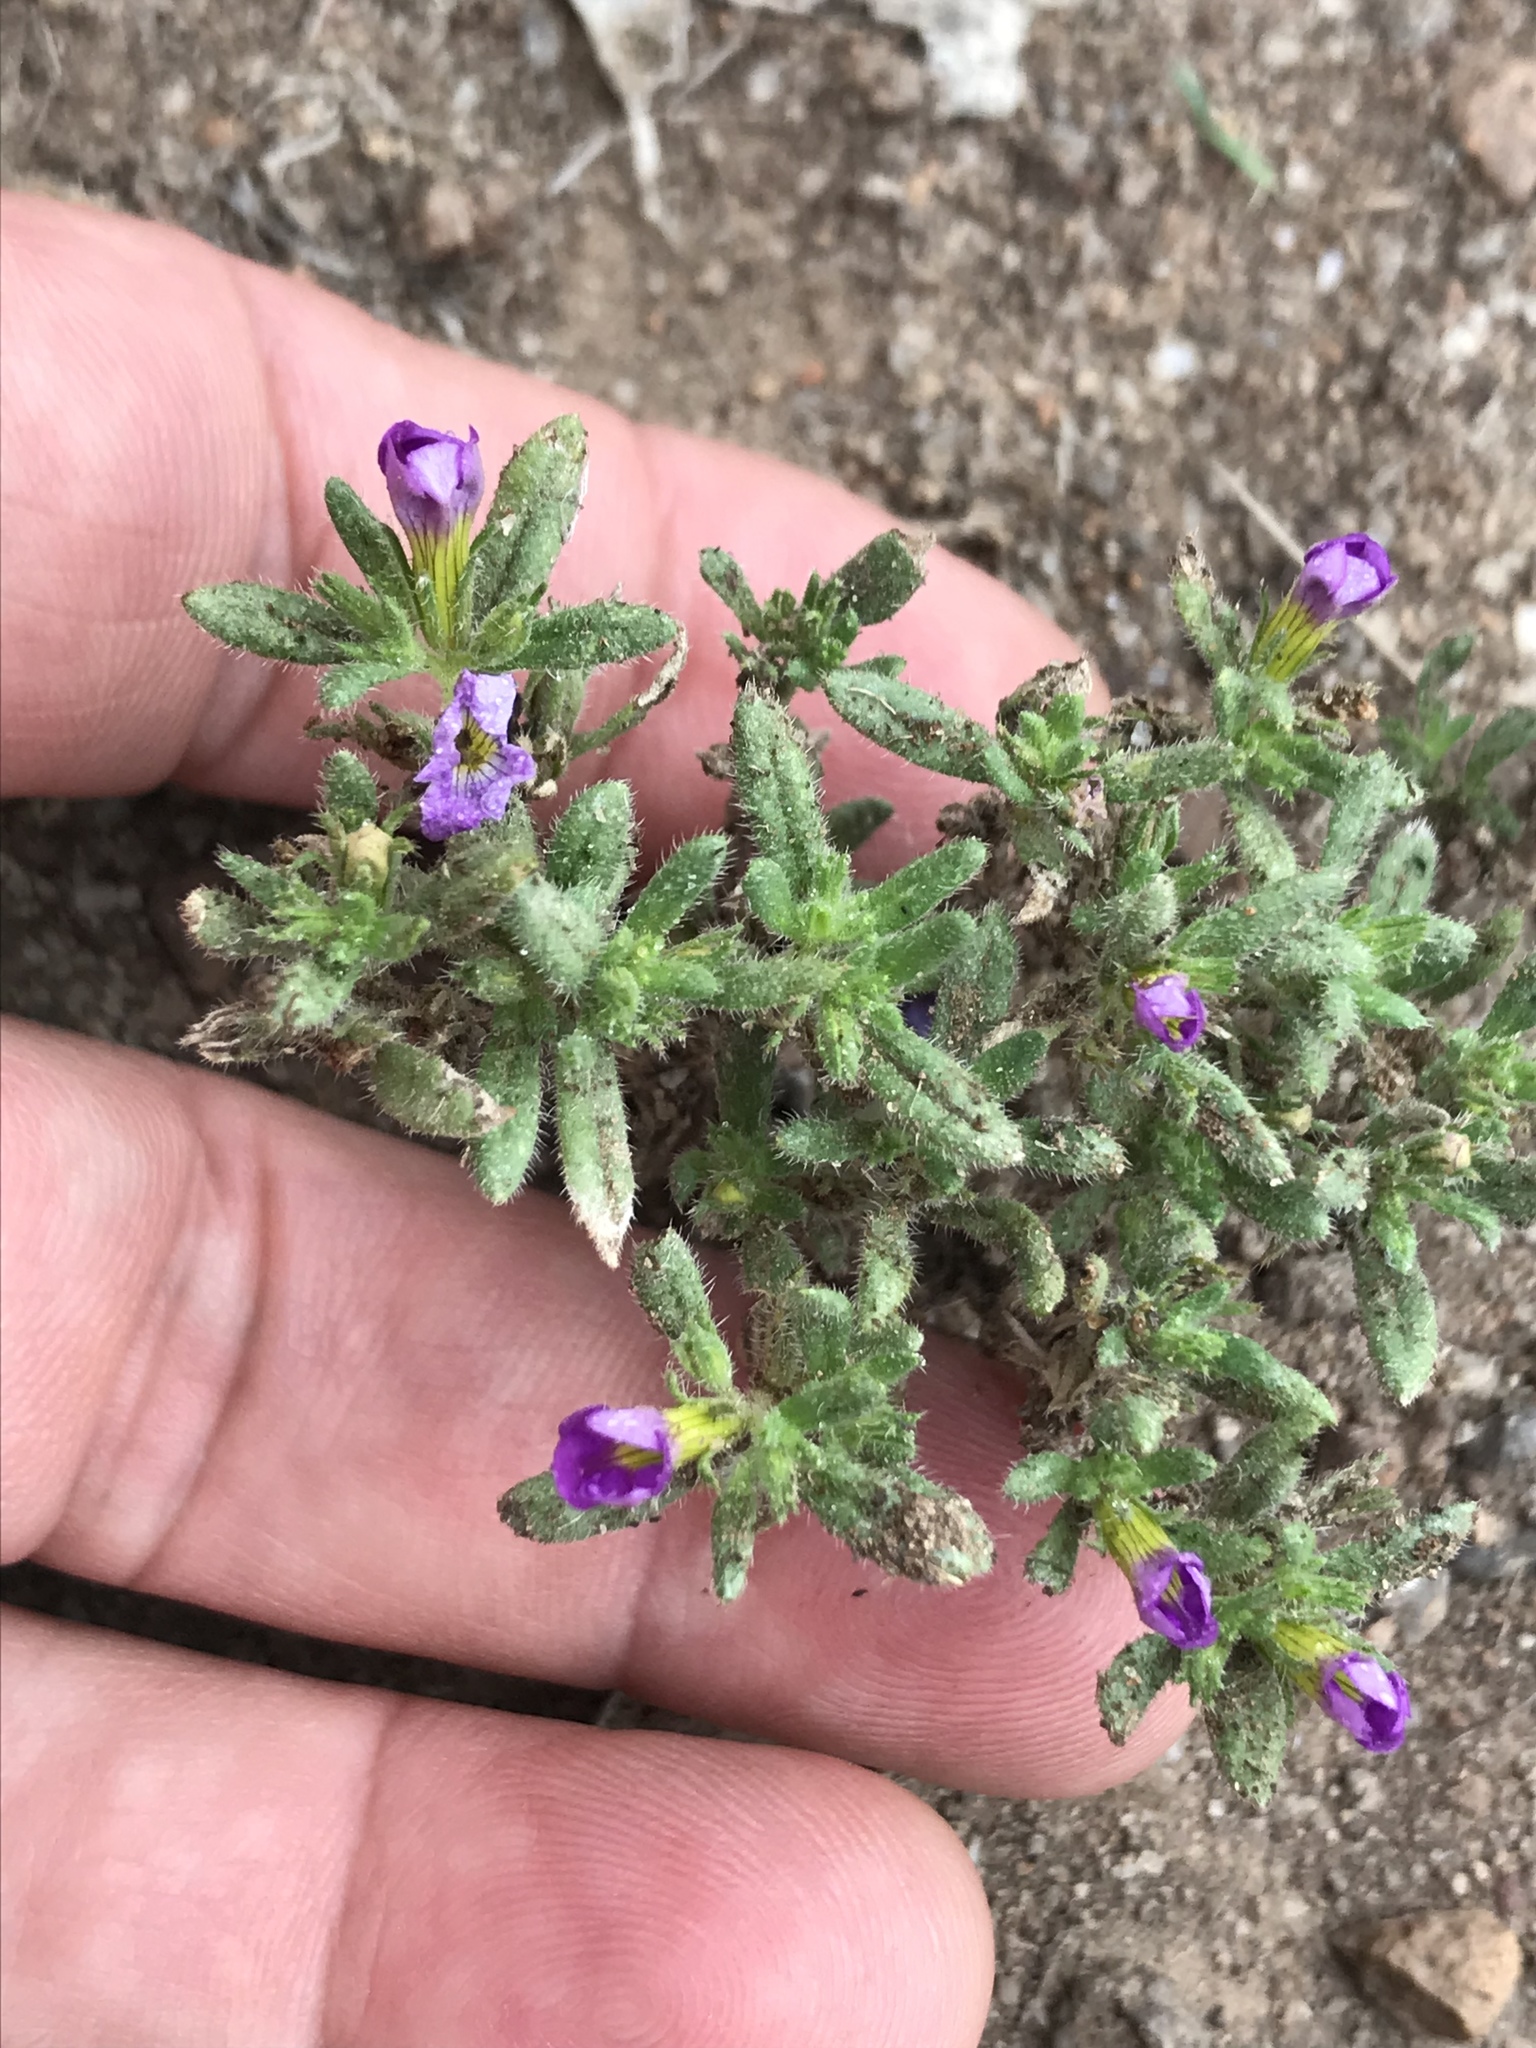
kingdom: Plantae
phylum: Tracheophyta
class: Magnoliopsida
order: Boraginales
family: Namaceae
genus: Nama
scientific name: Nama hispida
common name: Bristly nama
